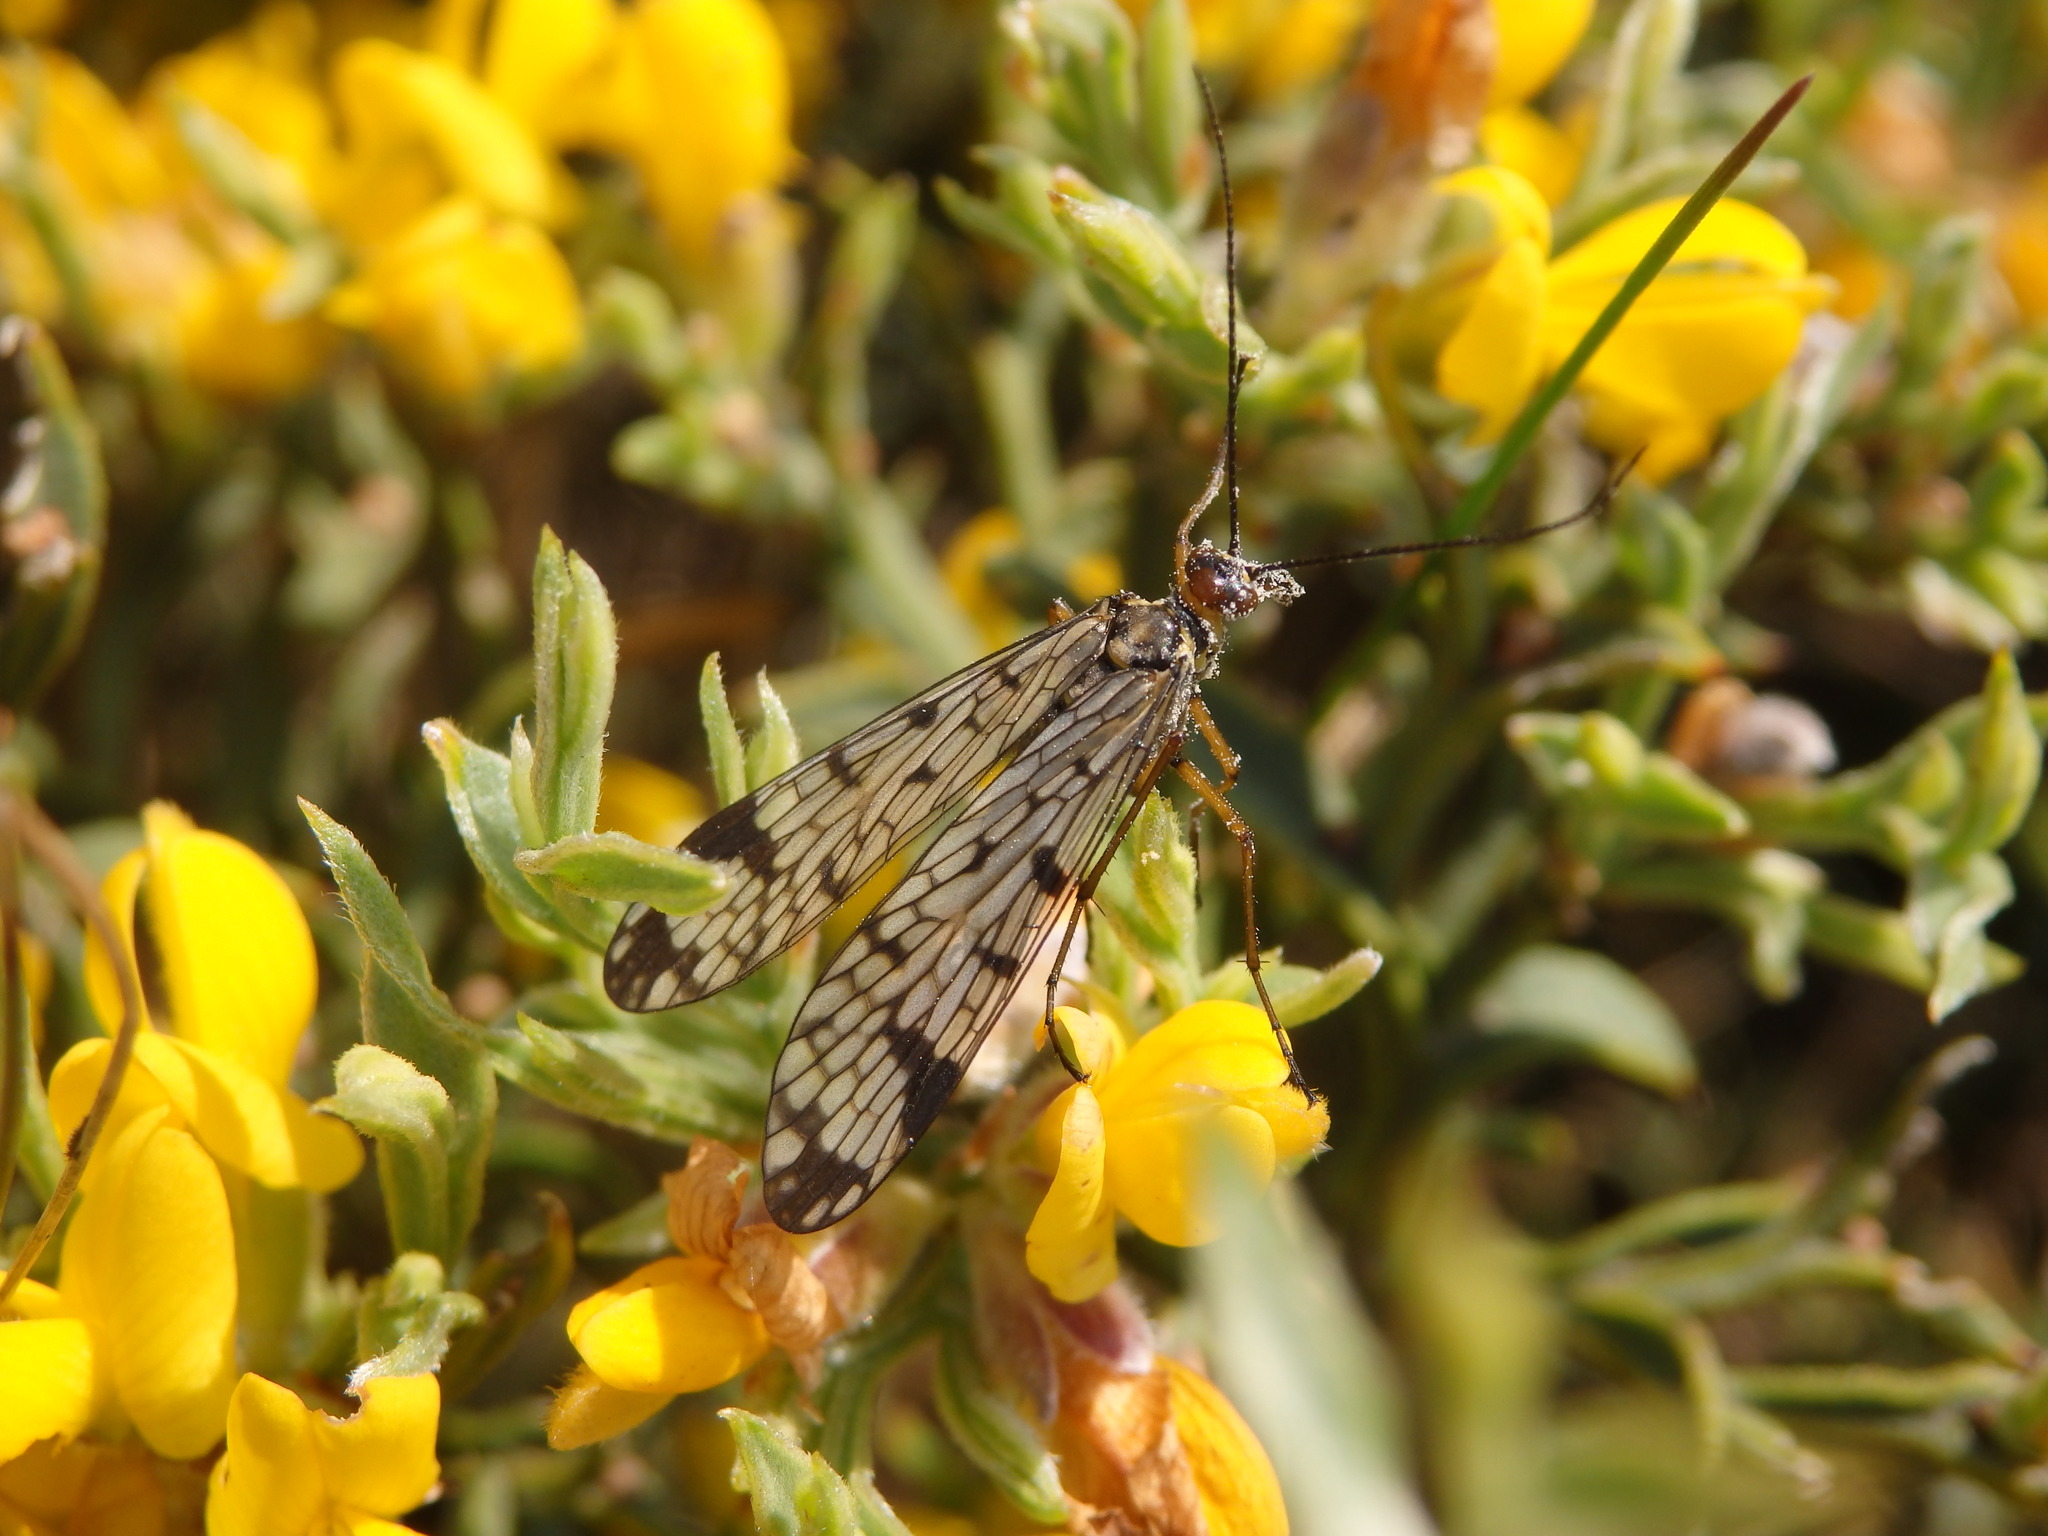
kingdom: Animalia
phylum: Arthropoda
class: Insecta
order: Mecoptera
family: Panorpidae
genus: Panorpa
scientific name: Panorpa meridionalis
